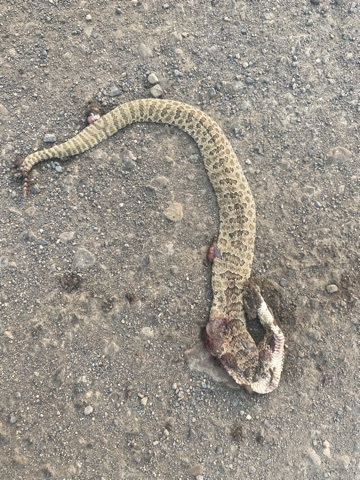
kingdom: Animalia
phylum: Chordata
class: Squamata
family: Viperidae
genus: Crotalus
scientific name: Crotalus viridis
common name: Prairie rattlesnake
